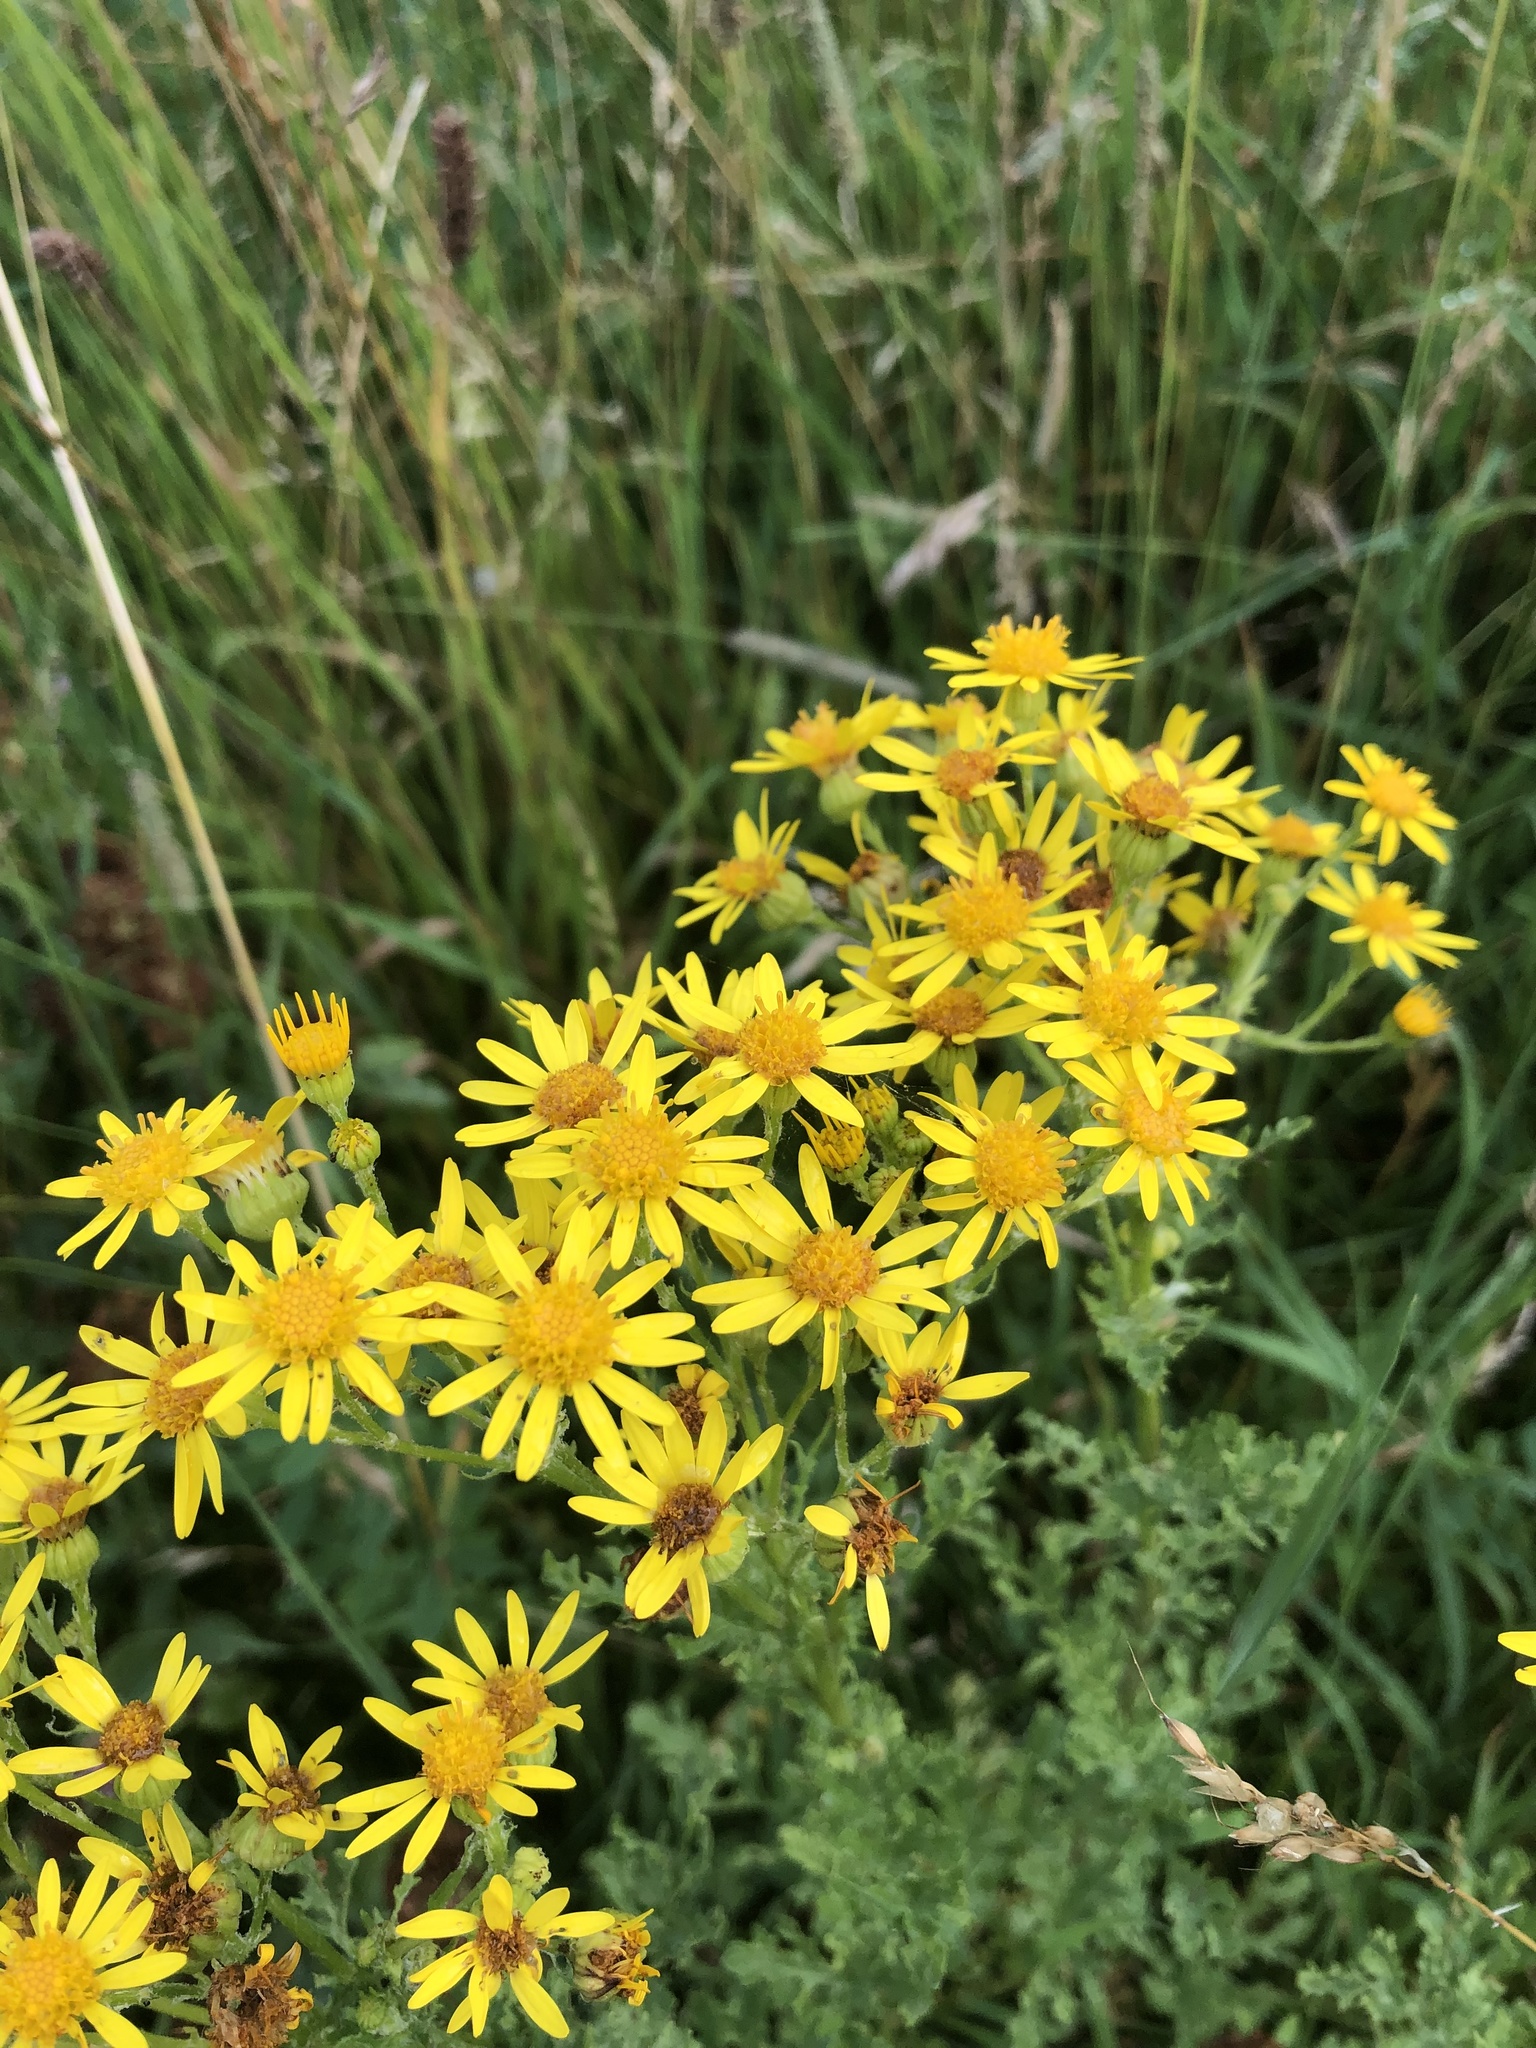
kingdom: Plantae
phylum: Tracheophyta
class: Magnoliopsida
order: Asterales
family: Asteraceae
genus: Jacobaea
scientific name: Jacobaea vulgaris
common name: Stinking willie
